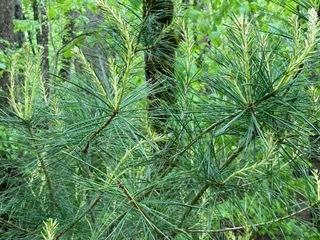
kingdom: Plantae
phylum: Tracheophyta
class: Pinopsida
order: Pinales
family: Pinaceae
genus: Pinus
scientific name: Pinus strobus
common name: Weymouth pine
